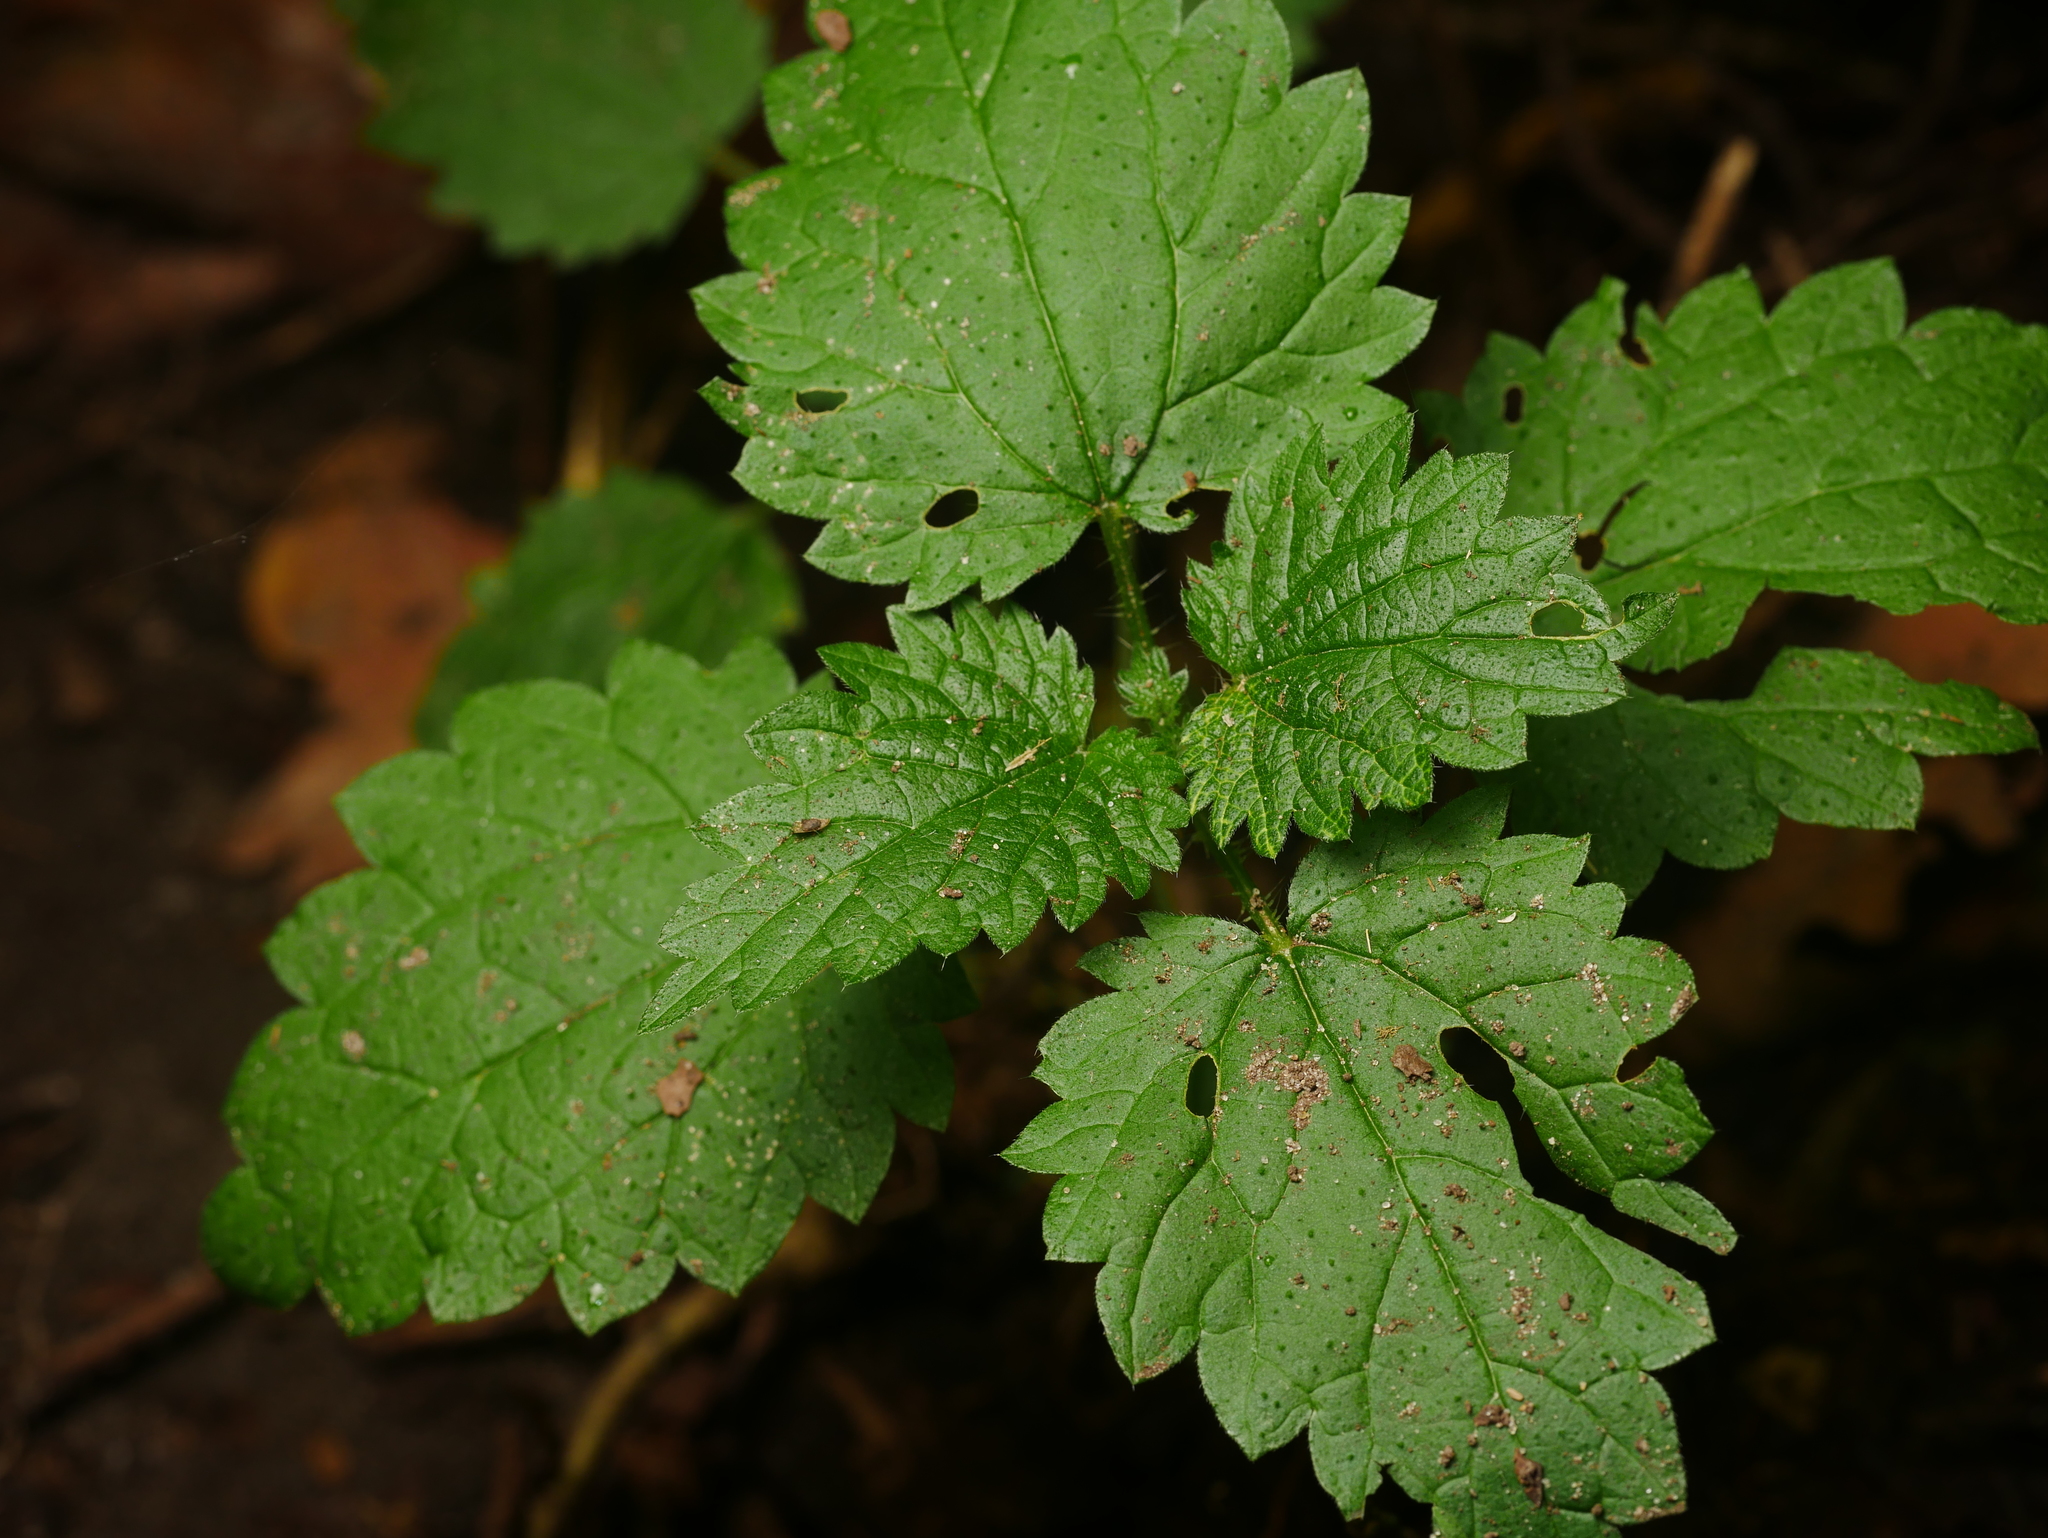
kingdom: Plantae
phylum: Tracheophyta
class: Magnoliopsida
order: Rosales
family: Urticaceae
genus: Urtica
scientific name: Urtica dioica
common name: Common nettle
